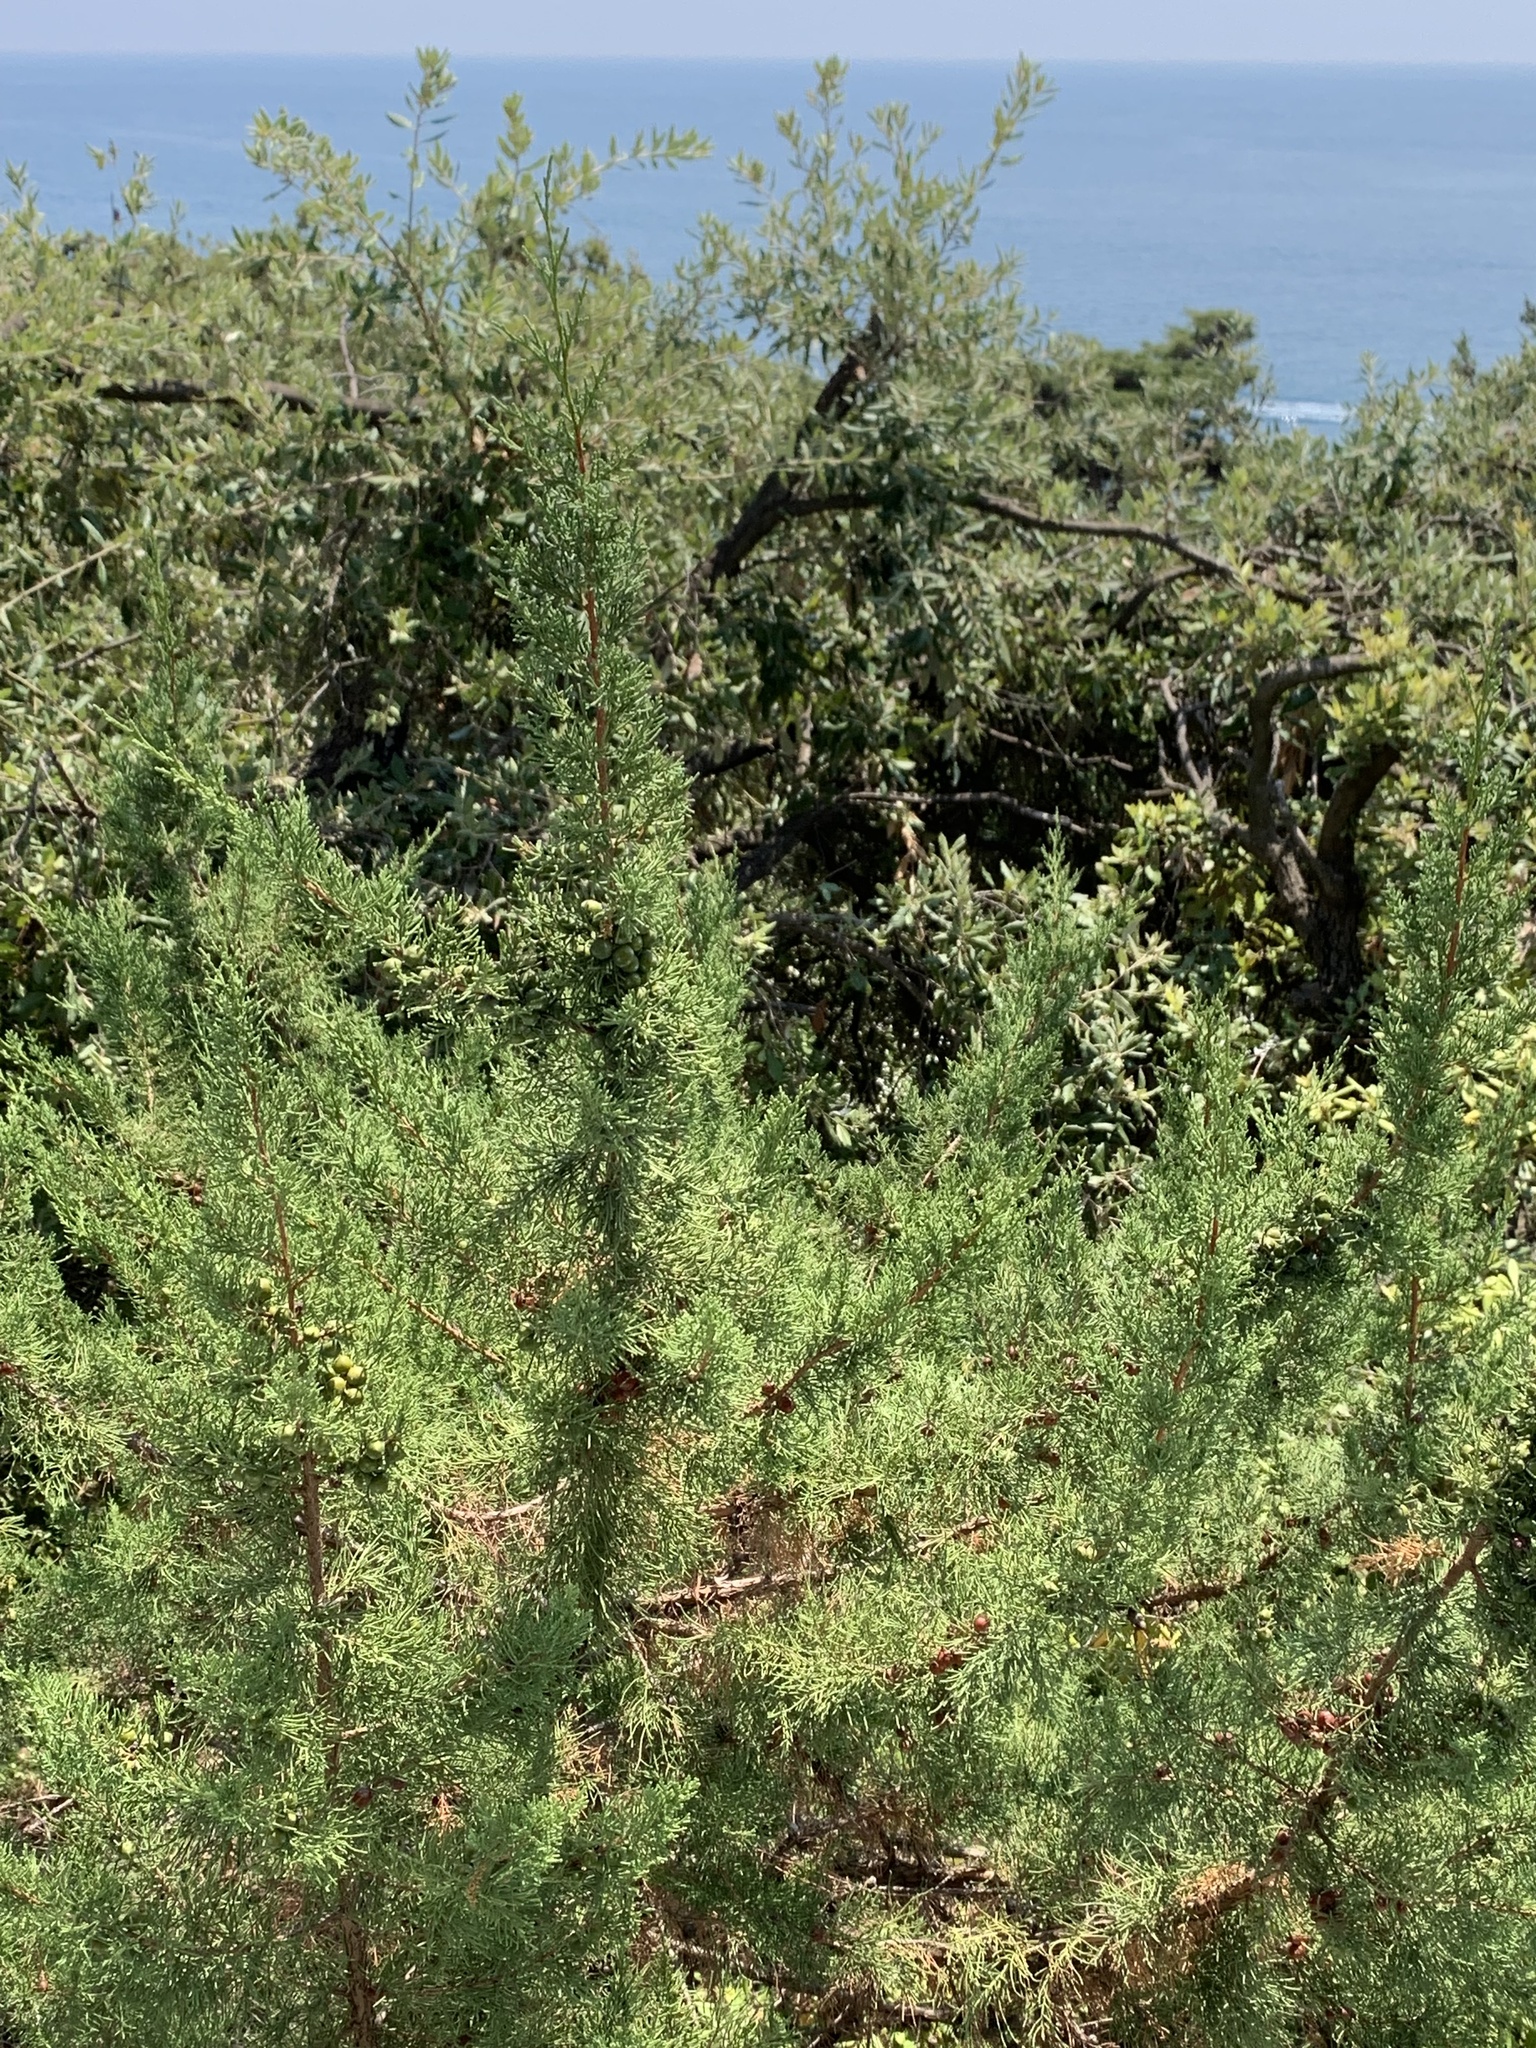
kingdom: Plantae
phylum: Tracheophyta
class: Pinopsida
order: Pinales
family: Cupressaceae
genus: Juniperus
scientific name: Juniperus phoenicea
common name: Phoenician juniper
